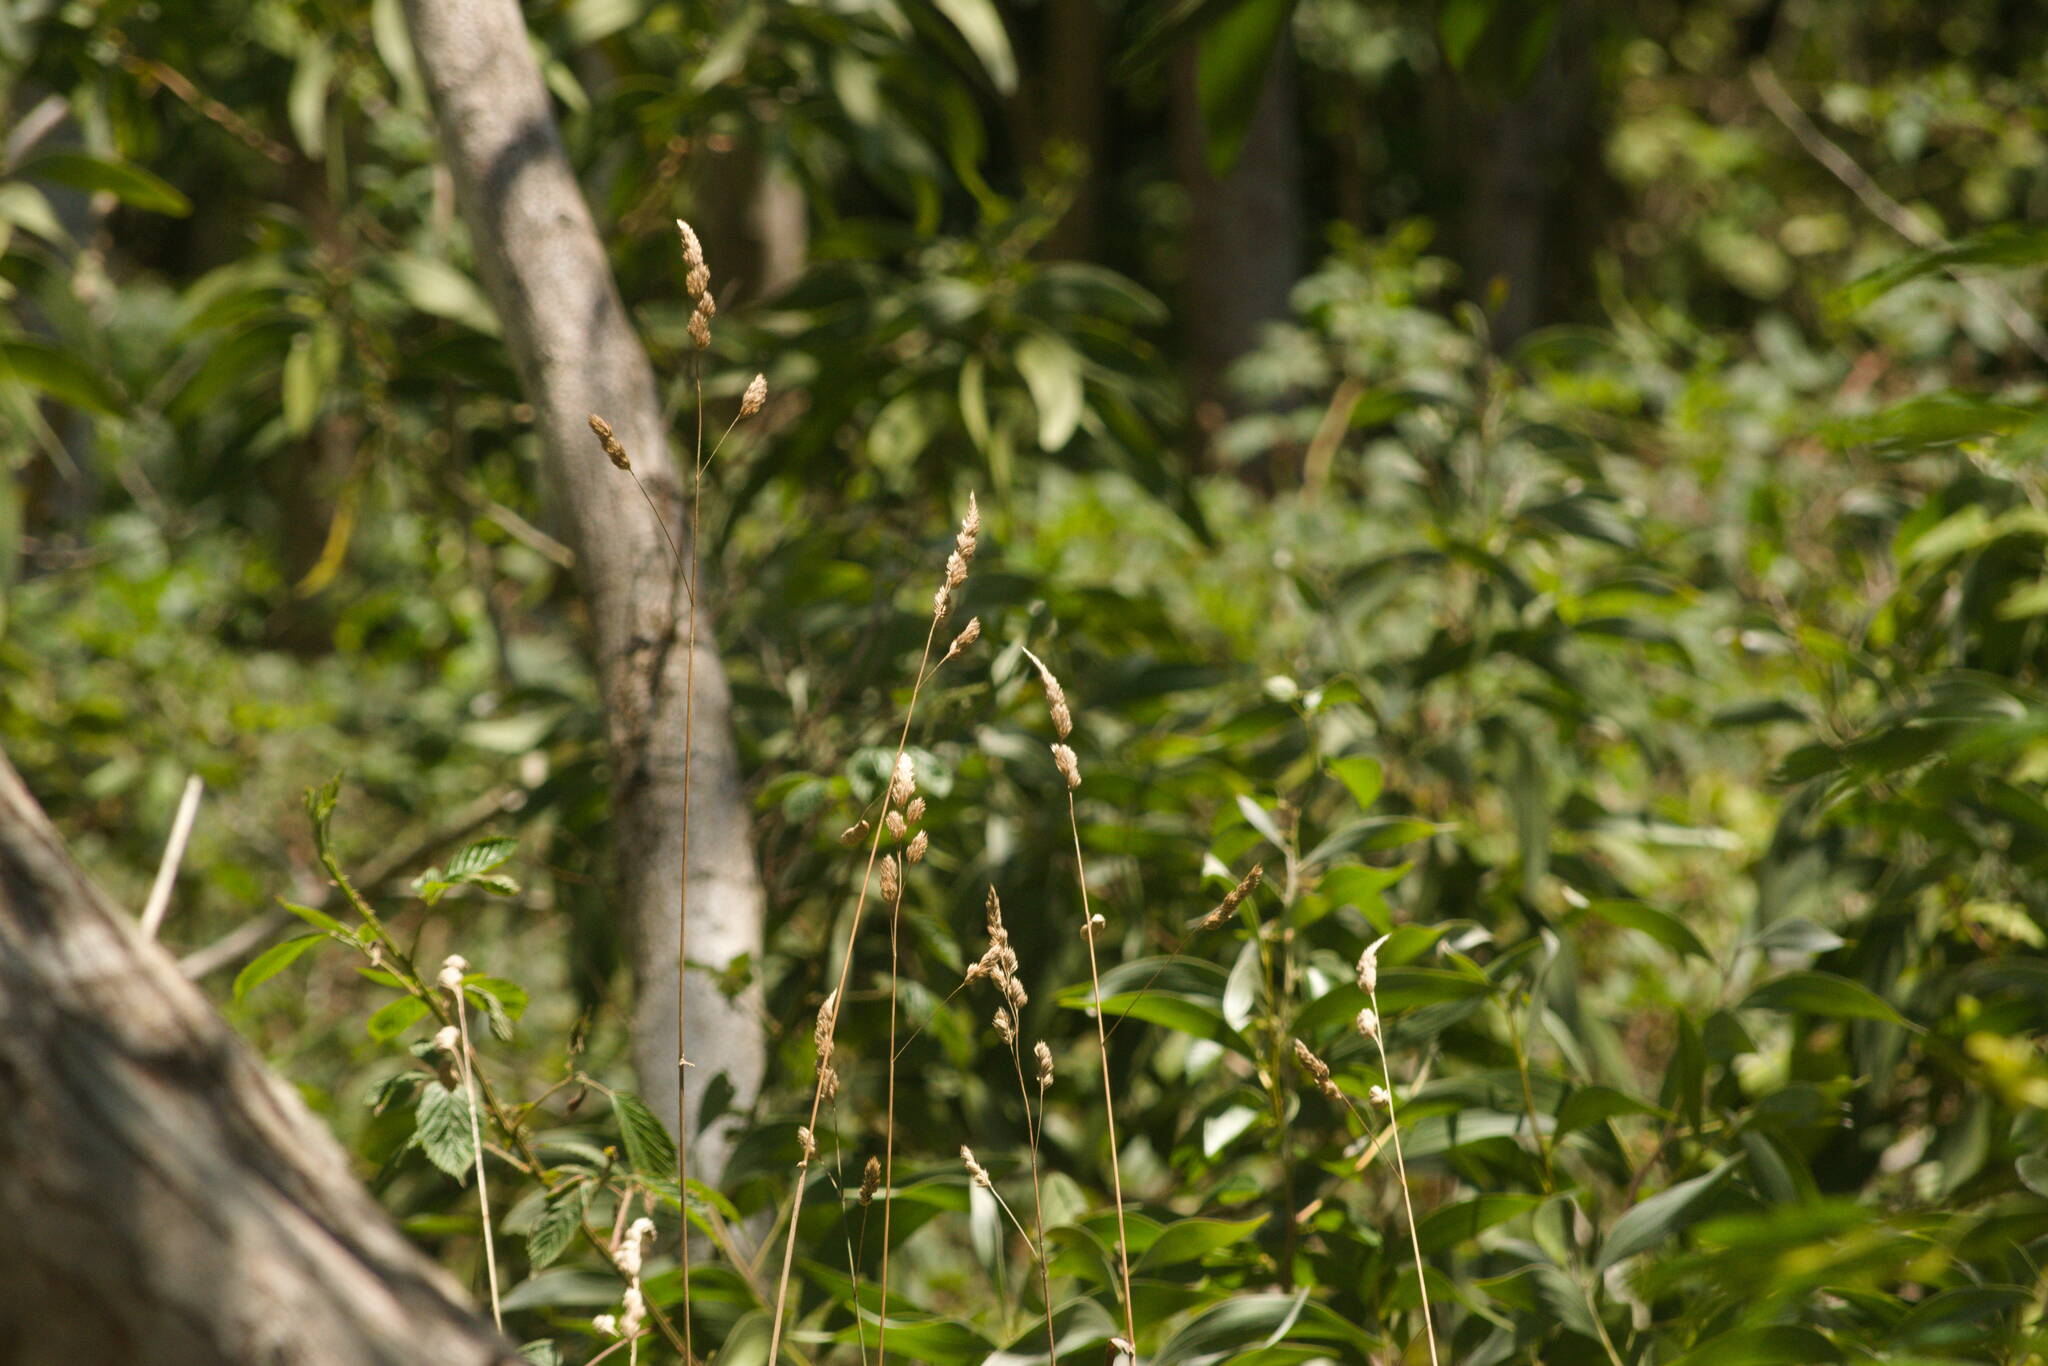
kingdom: Plantae
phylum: Tracheophyta
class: Liliopsida
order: Poales
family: Poaceae
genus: Dactylis
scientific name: Dactylis glomerata
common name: Orchardgrass
